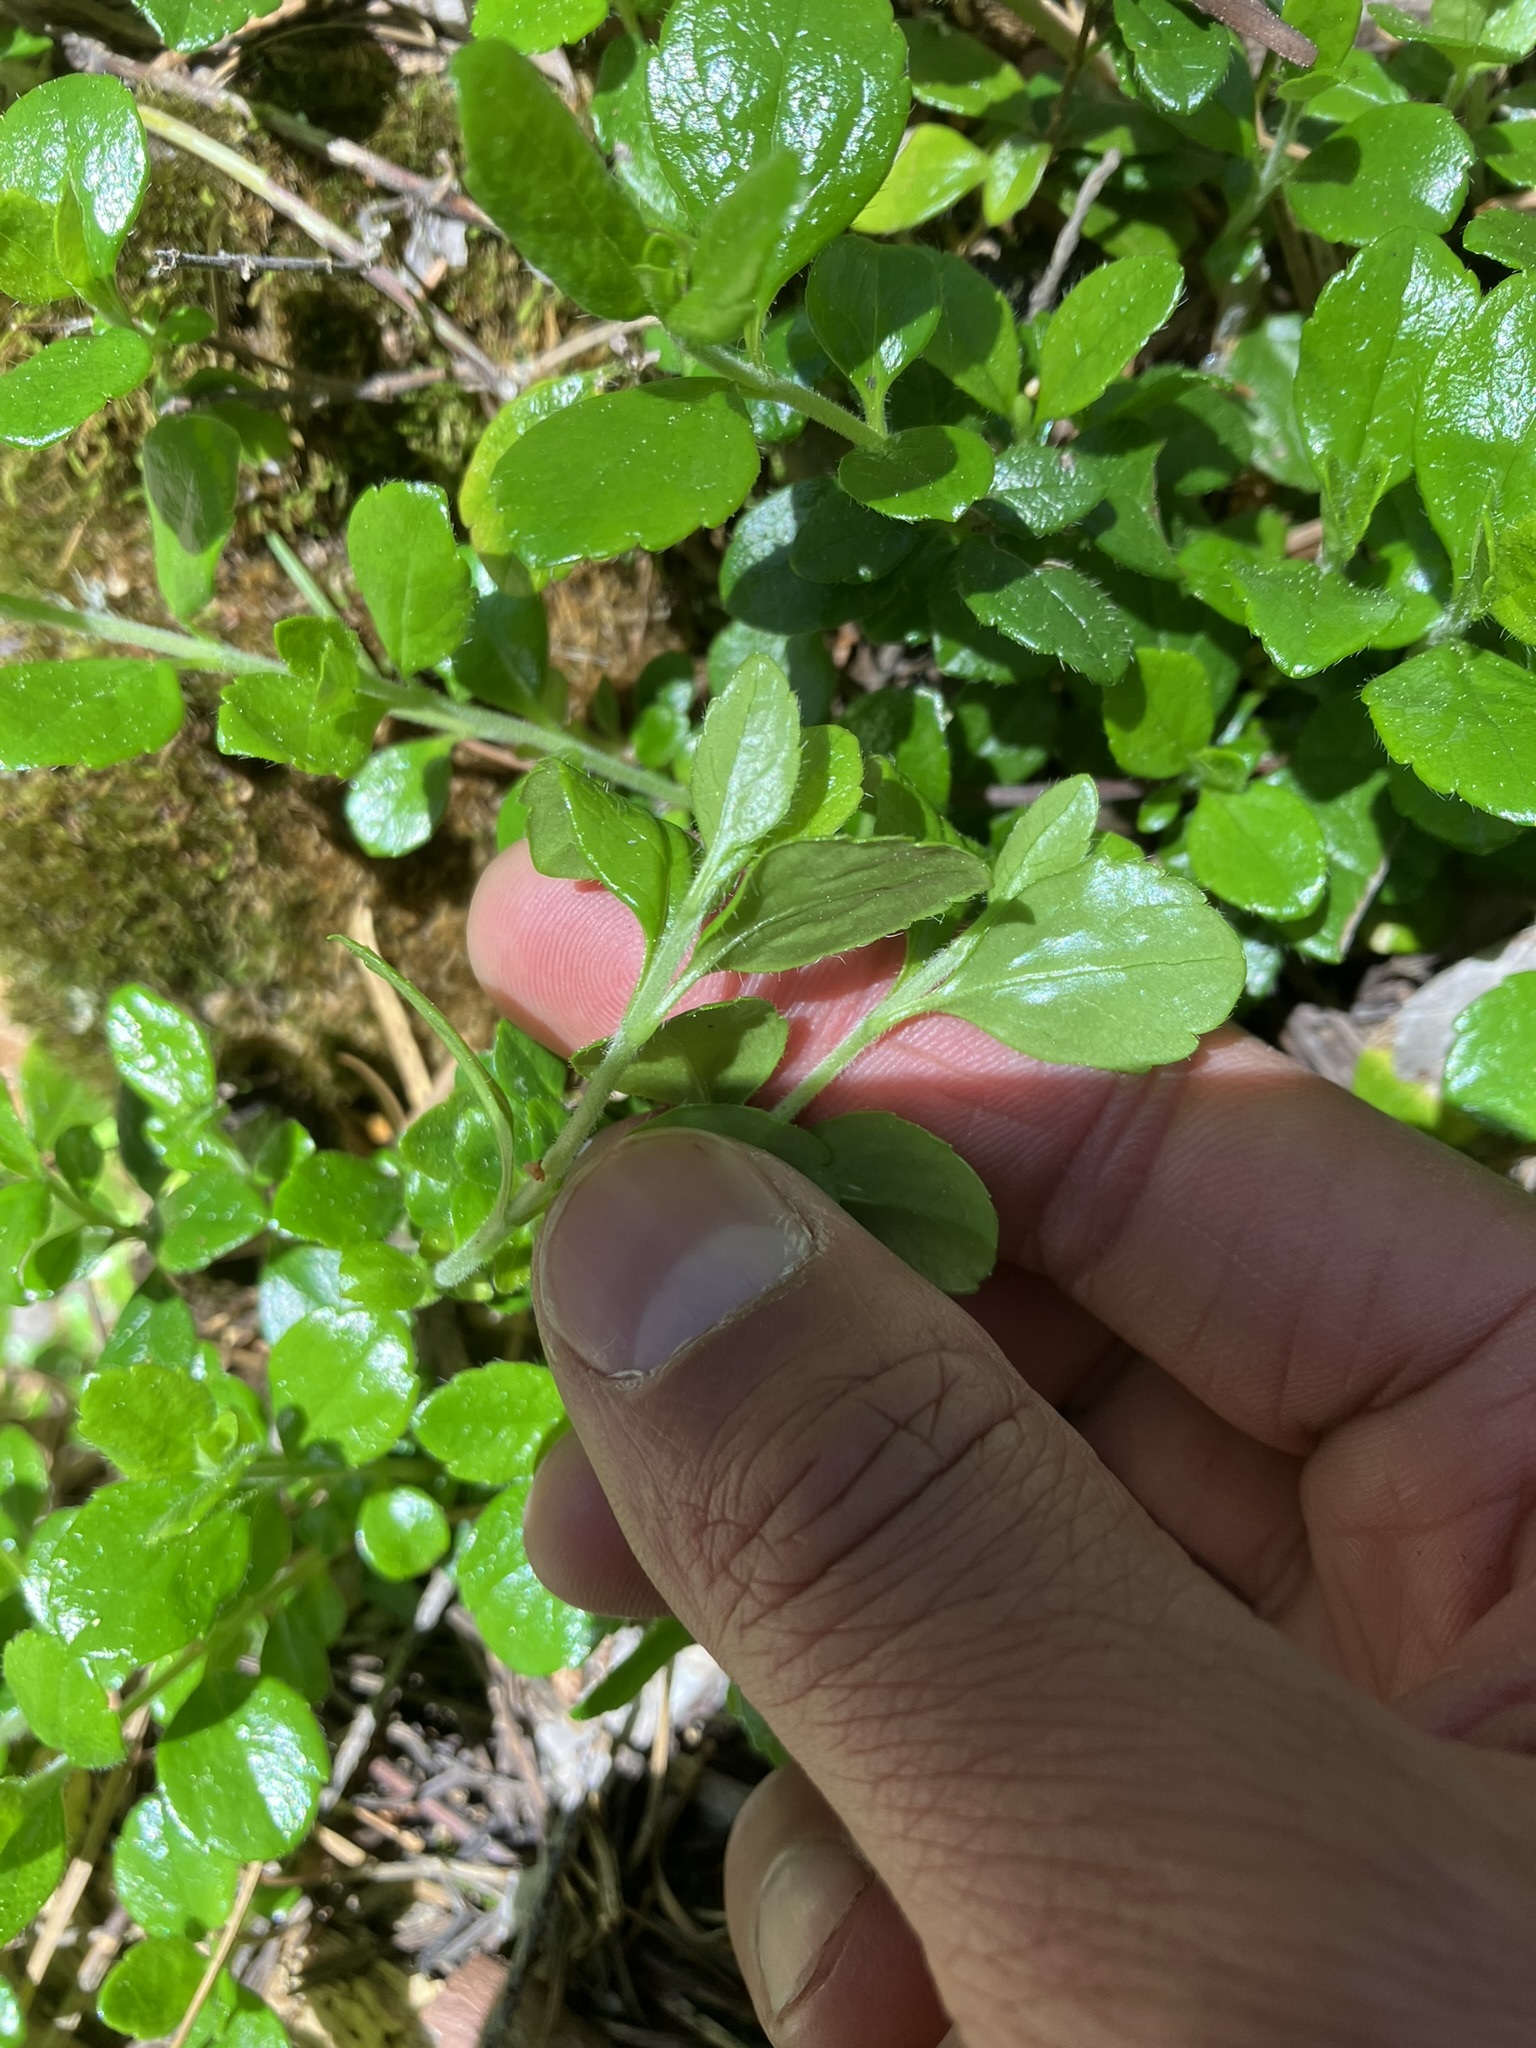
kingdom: Plantae
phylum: Tracheophyta
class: Magnoliopsida
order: Dipsacales
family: Caprifoliaceae
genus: Linnaea
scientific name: Linnaea borealis
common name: Twinflower
